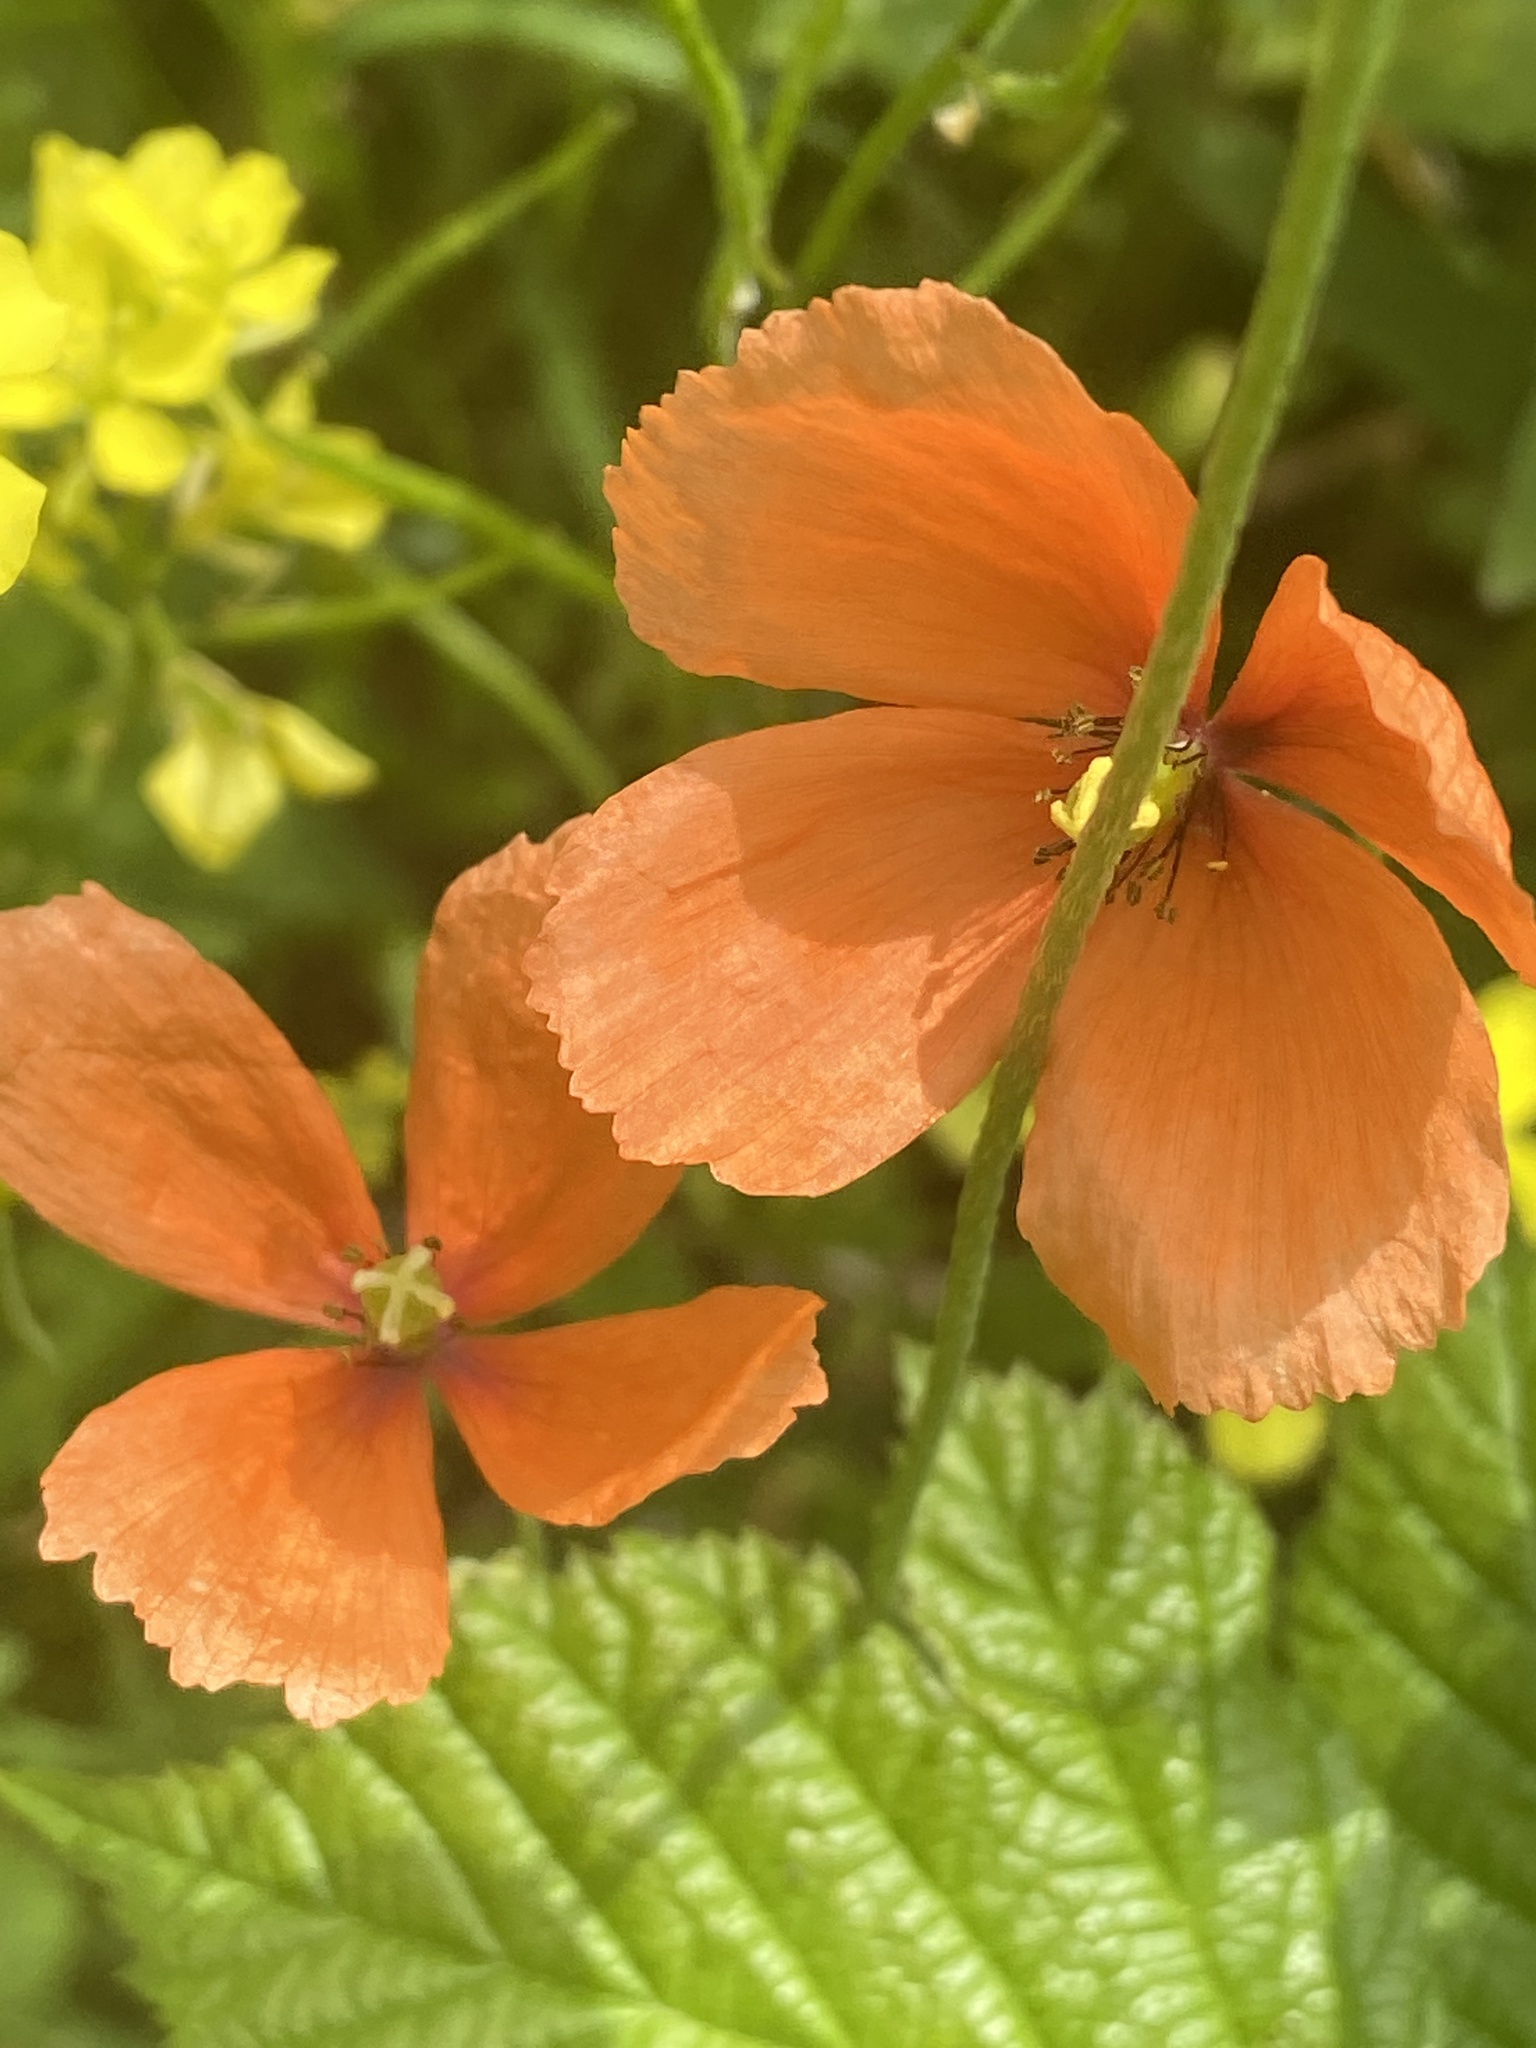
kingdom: Plantae
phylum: Tracheophyta
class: Magnoliopsida
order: Ranunculales
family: Papaveraceae
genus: Papaver
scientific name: Papaver dubium
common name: Long-headed poppy
